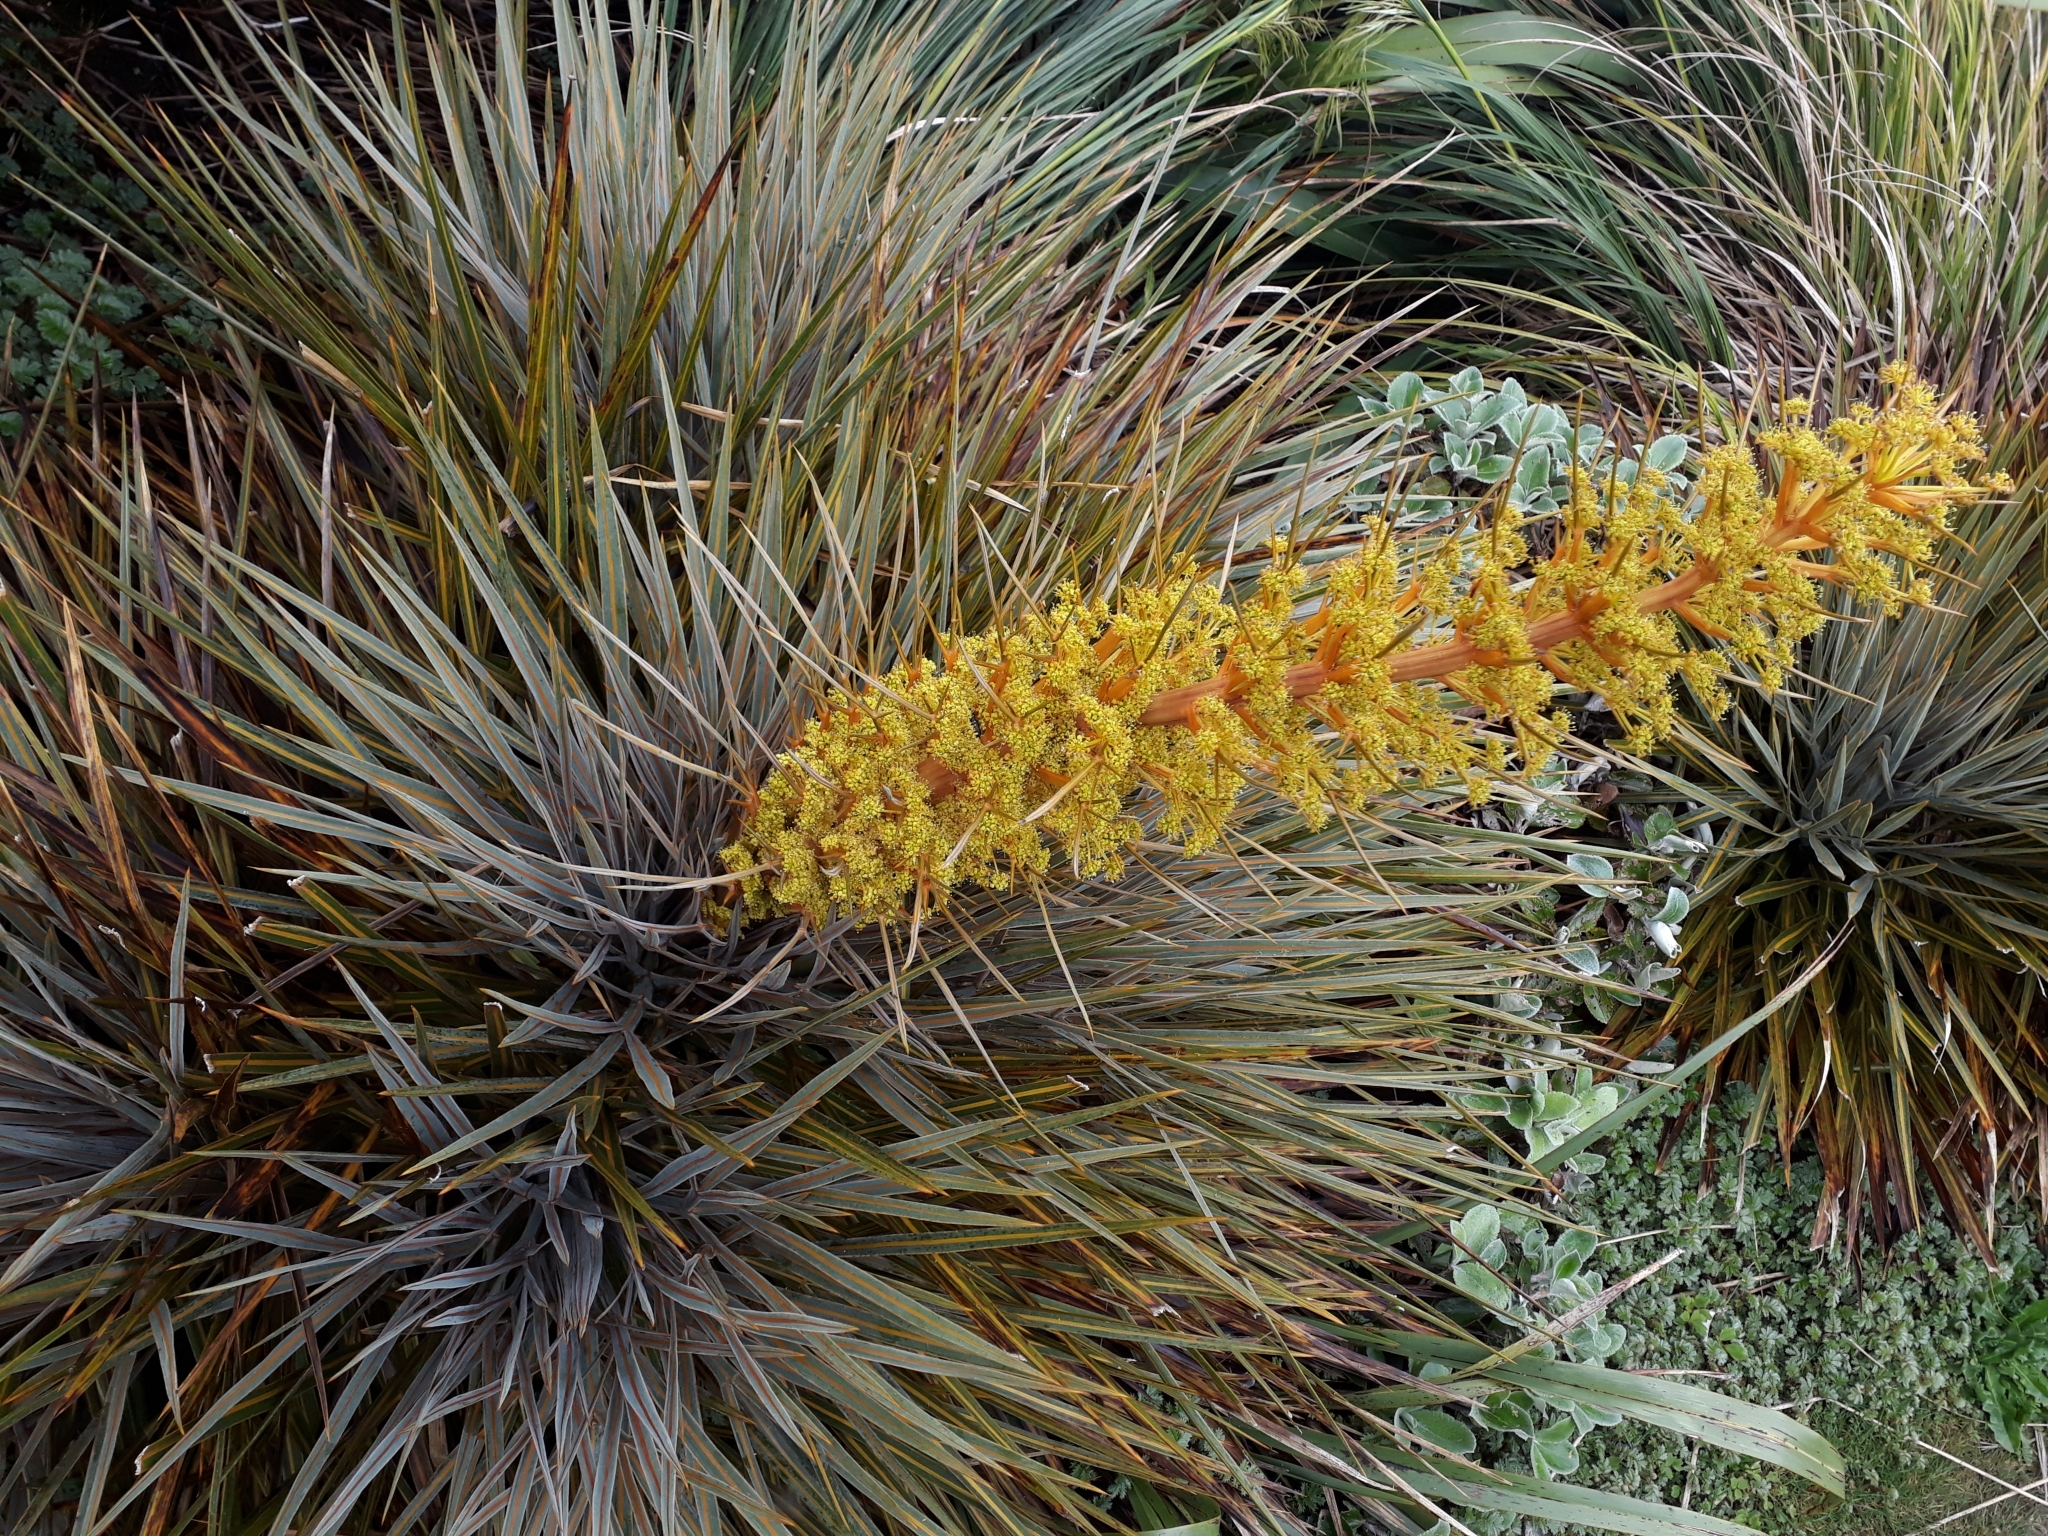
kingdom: Plantae
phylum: Tracheophyta
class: Magnoliopsida
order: Apiales
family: Apiaceae
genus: Aciphylla
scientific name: Aciphylla colensoi
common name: Colenso's spaniard
